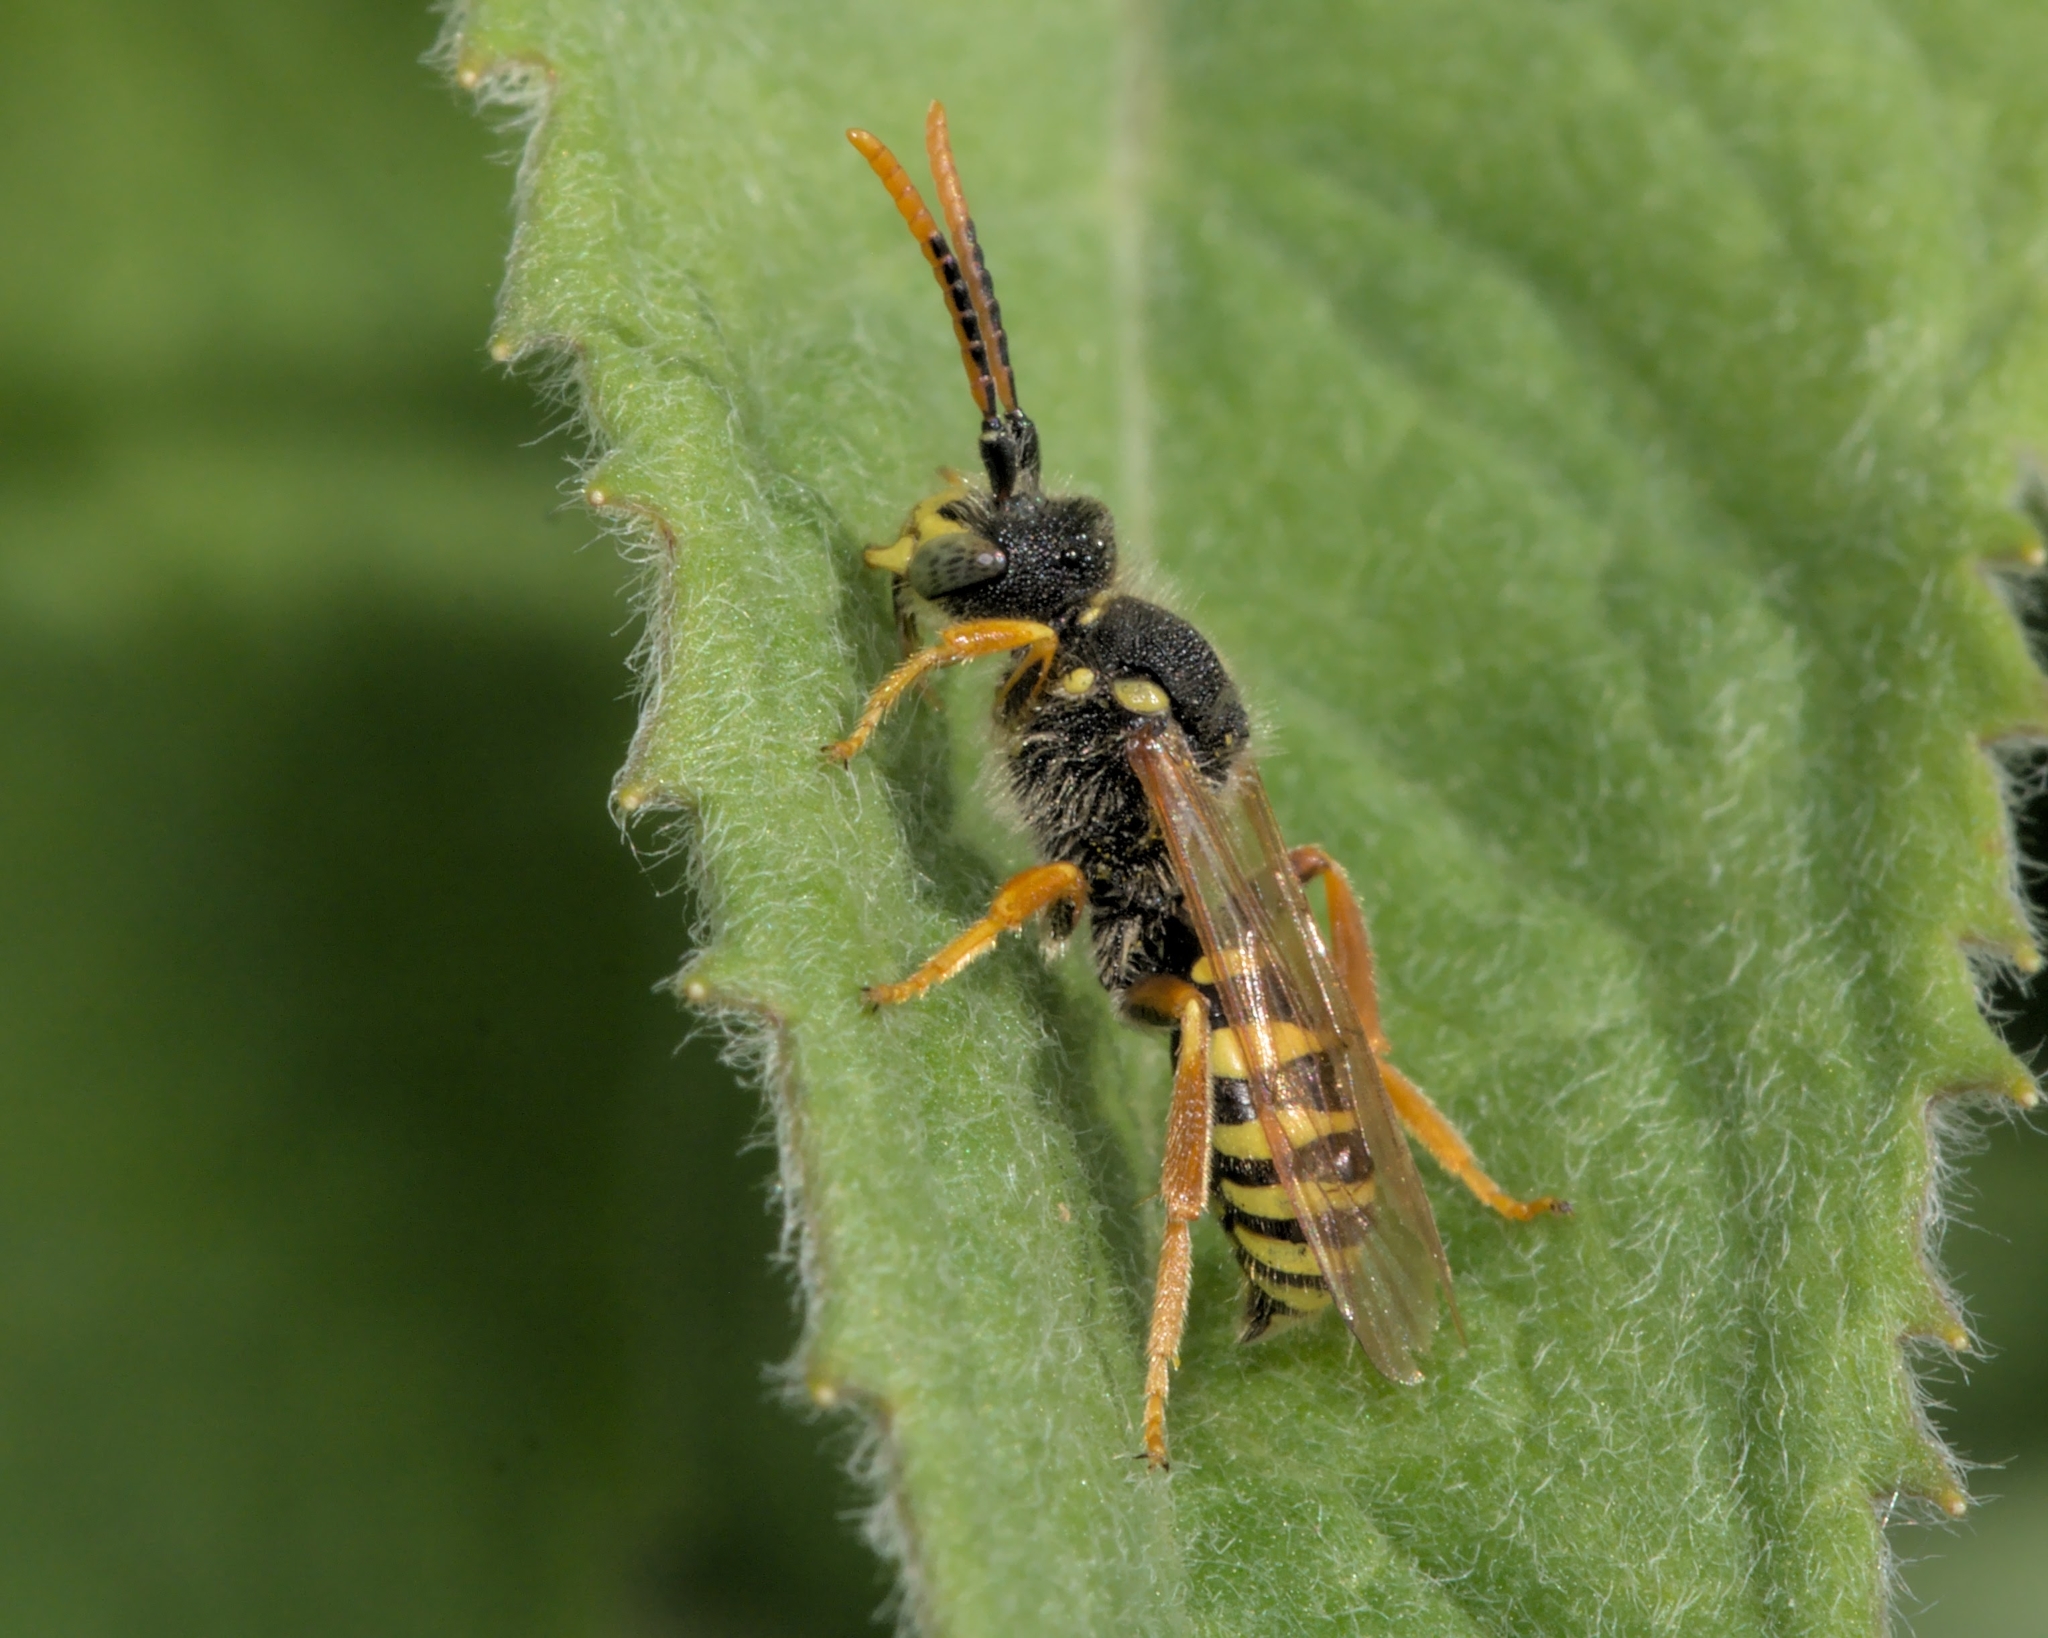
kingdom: Animalia
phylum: Arthropoda
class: Insecta
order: Hymenoptera
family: Apidae
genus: Nomada
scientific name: Nomada goodeniana
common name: Gooden's nomad bee
